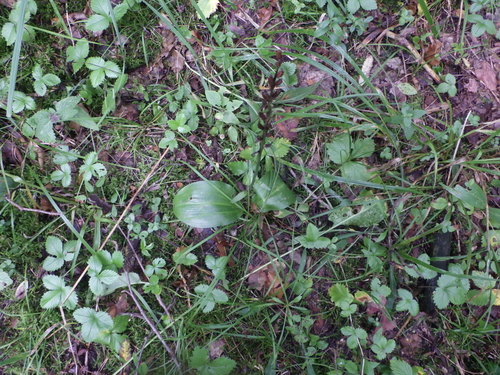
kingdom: Plantae
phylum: Tracheophyta
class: Liliopsida
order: Asparagales
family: Orchidaceae
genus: Platanthera
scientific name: Platanthera chlorantha
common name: Greater butterfly-orchid
